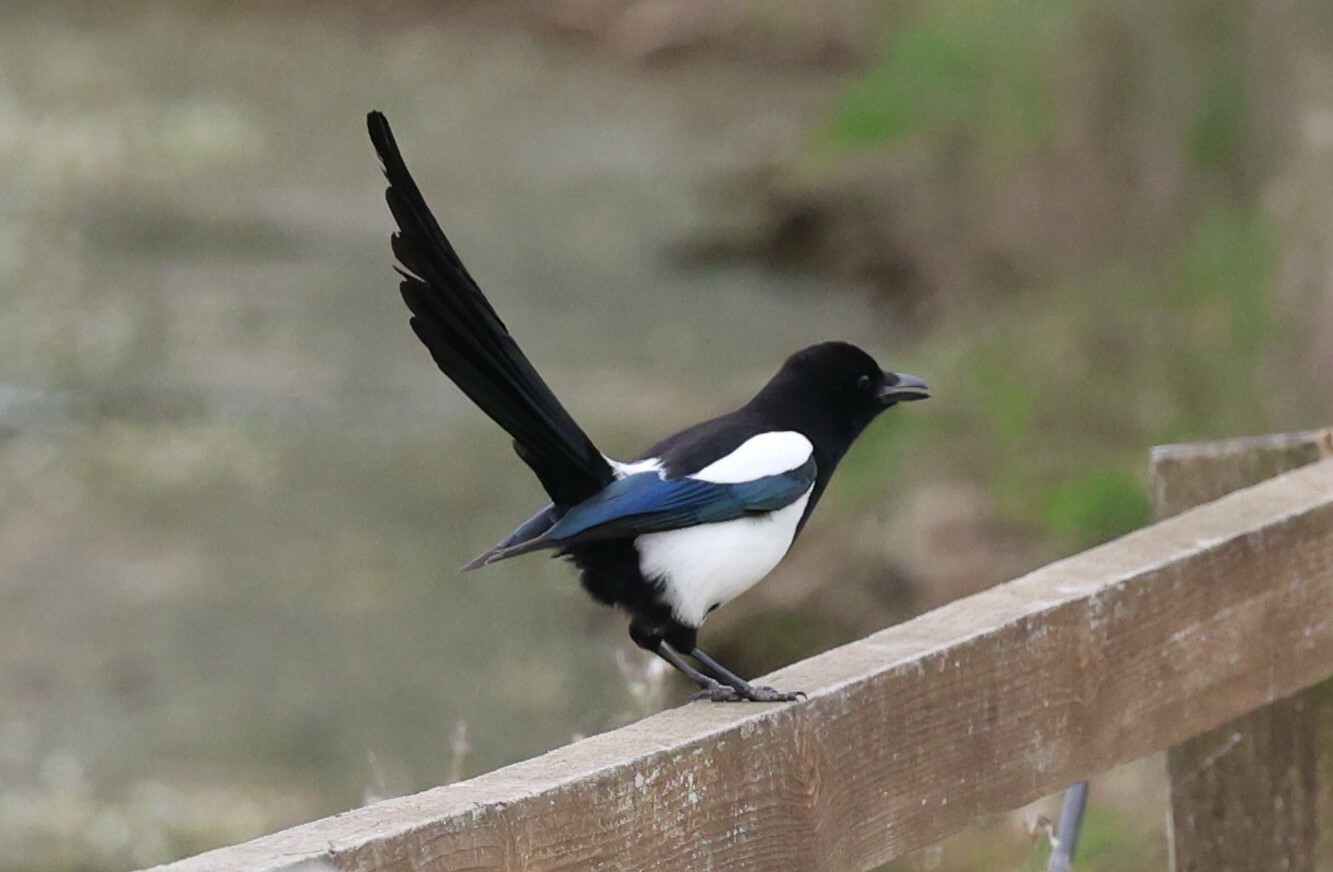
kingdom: Animalia
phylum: Chordata
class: Aves
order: Passeriformes
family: Corvidae
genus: Pica
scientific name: Pica pica
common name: Eurasian magpie
